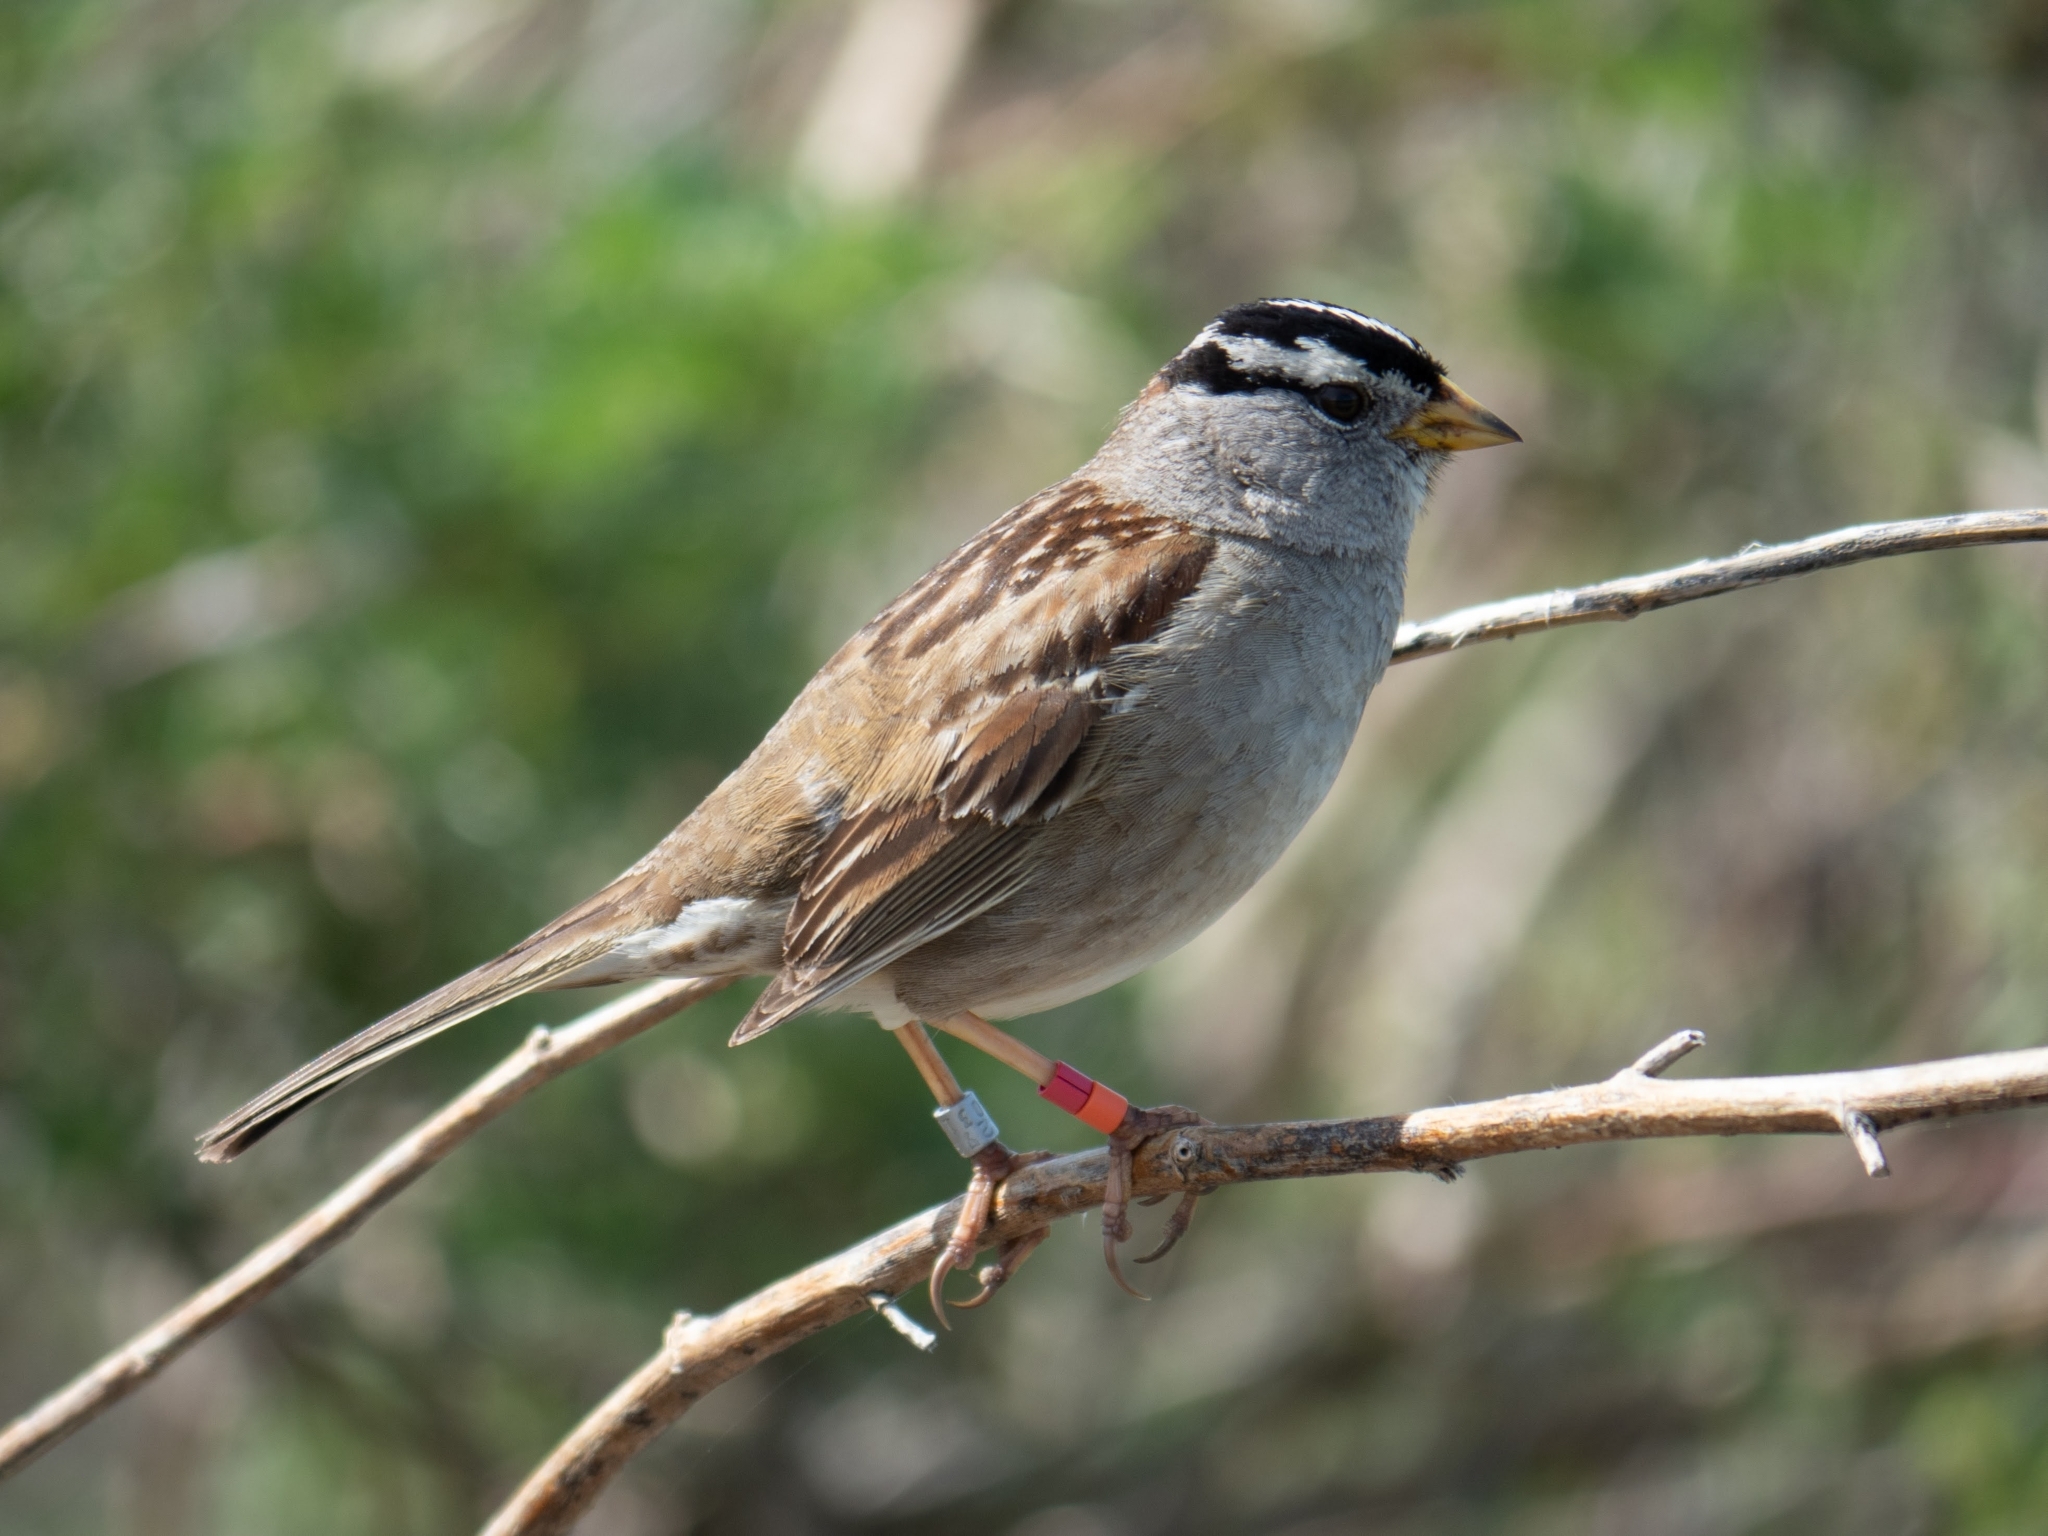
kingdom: Animalia
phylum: Chordata
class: Aves
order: Passeriformes
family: Passerellidae
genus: Zonotrichia
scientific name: Zonotrichia leucophrys
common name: White-crowned sparrow
